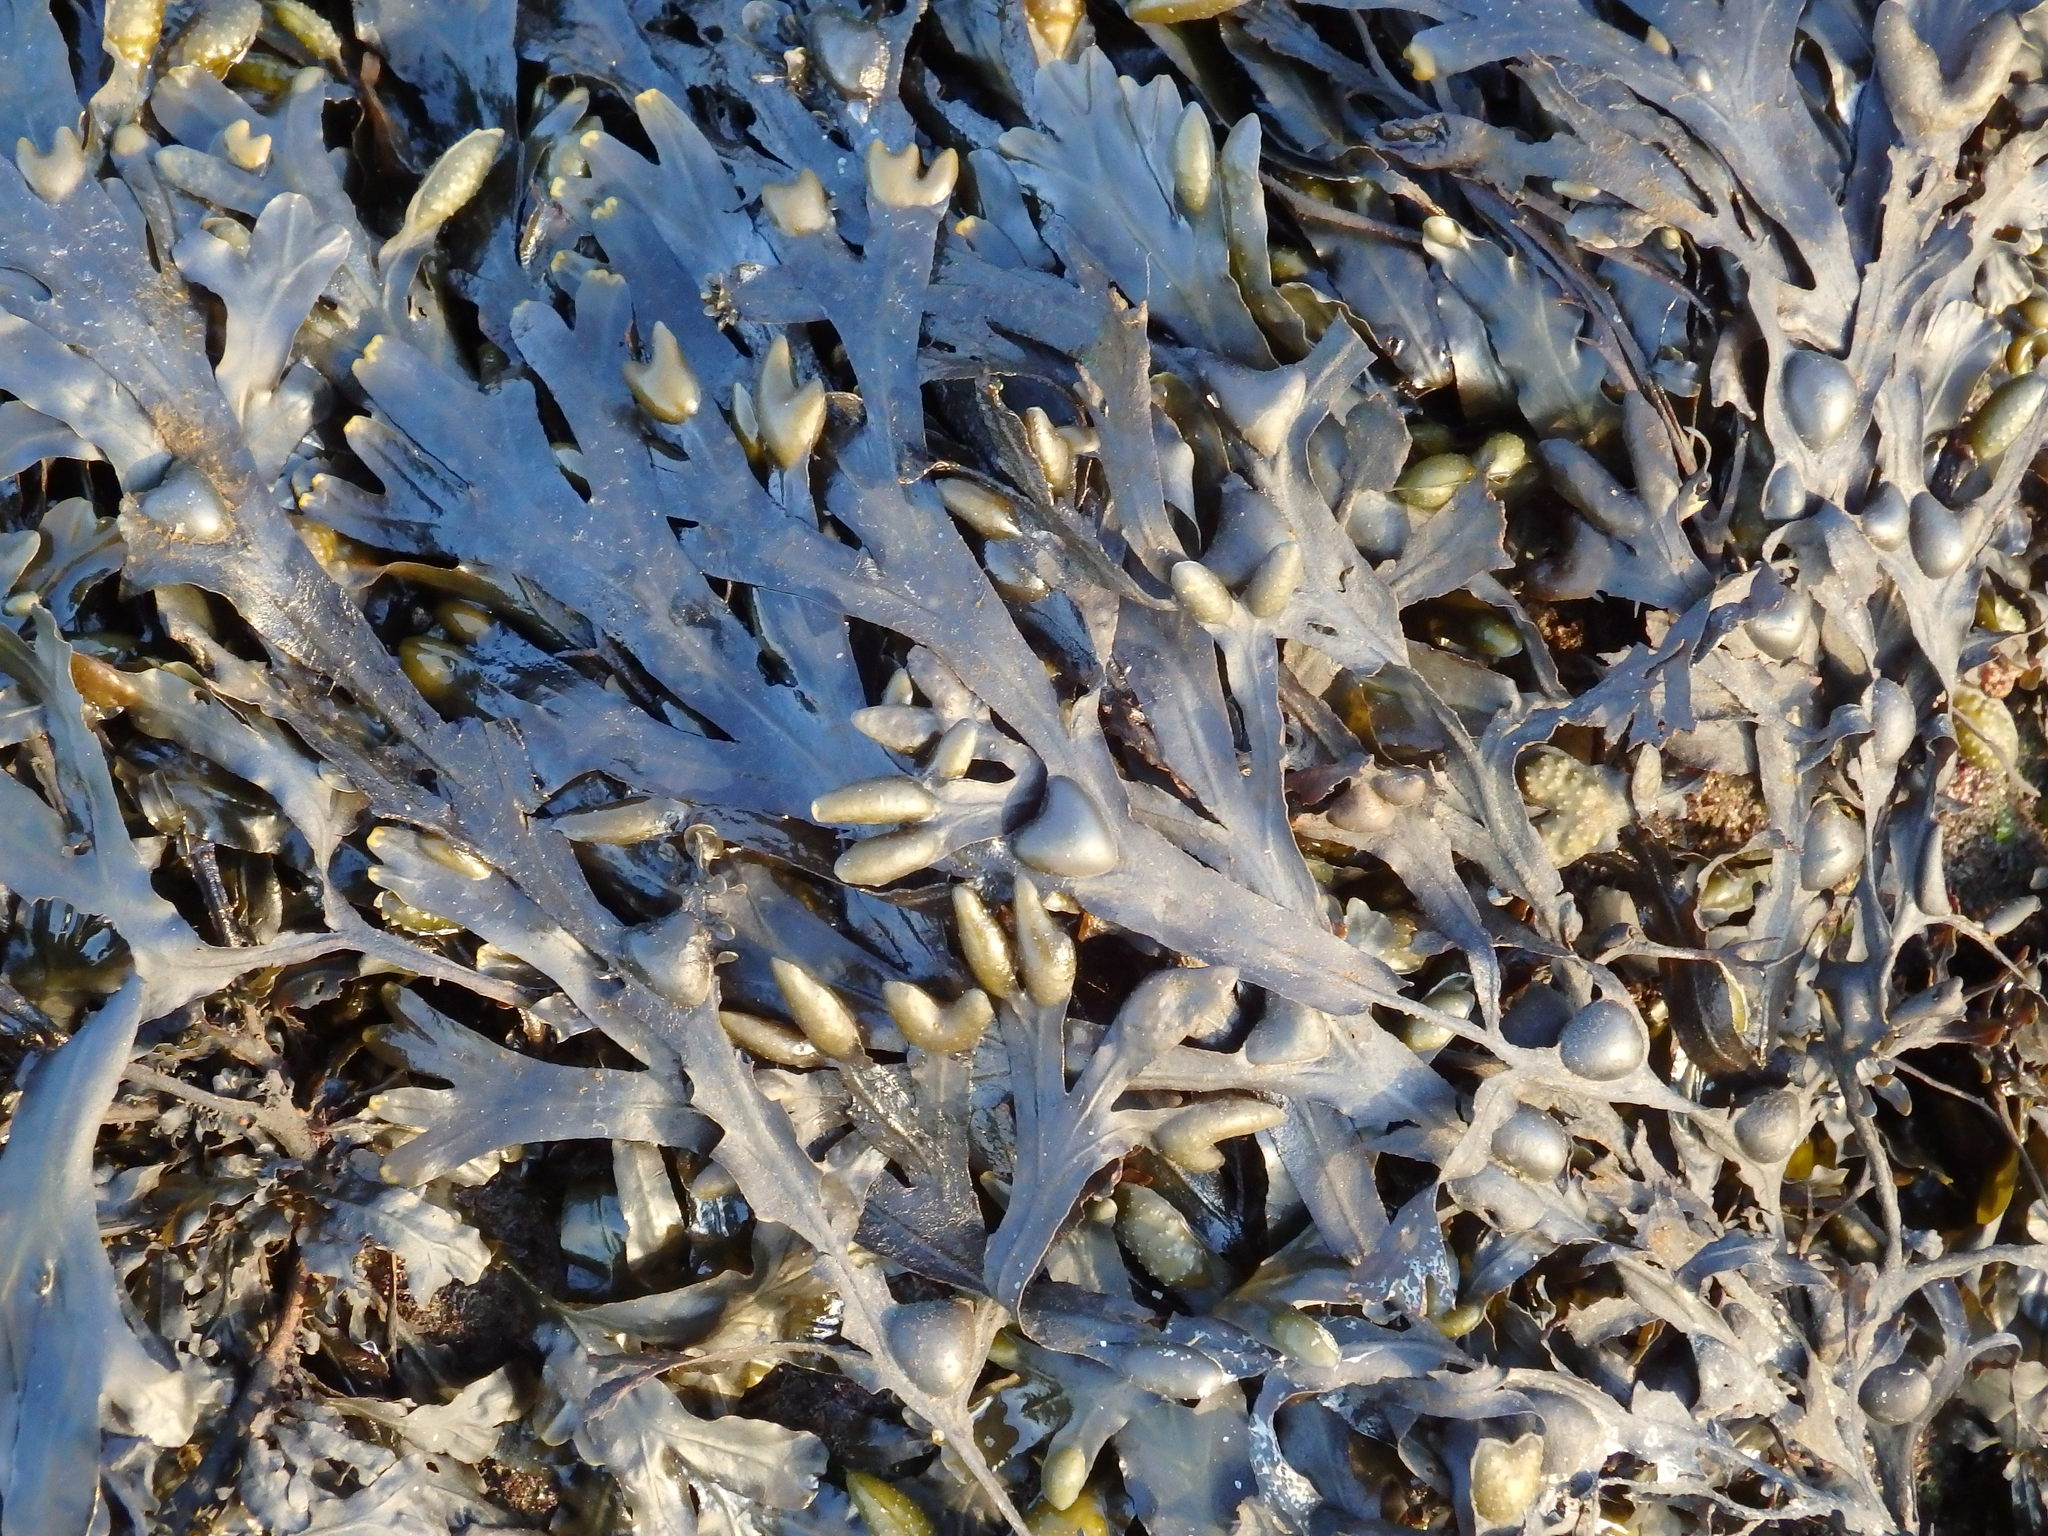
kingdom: Chromista
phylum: Ochrophyta
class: Phaeophyceae
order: Fucales
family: Fucaceae
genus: Fucus
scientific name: Fucus vesiculosus
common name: Bladder wrack
